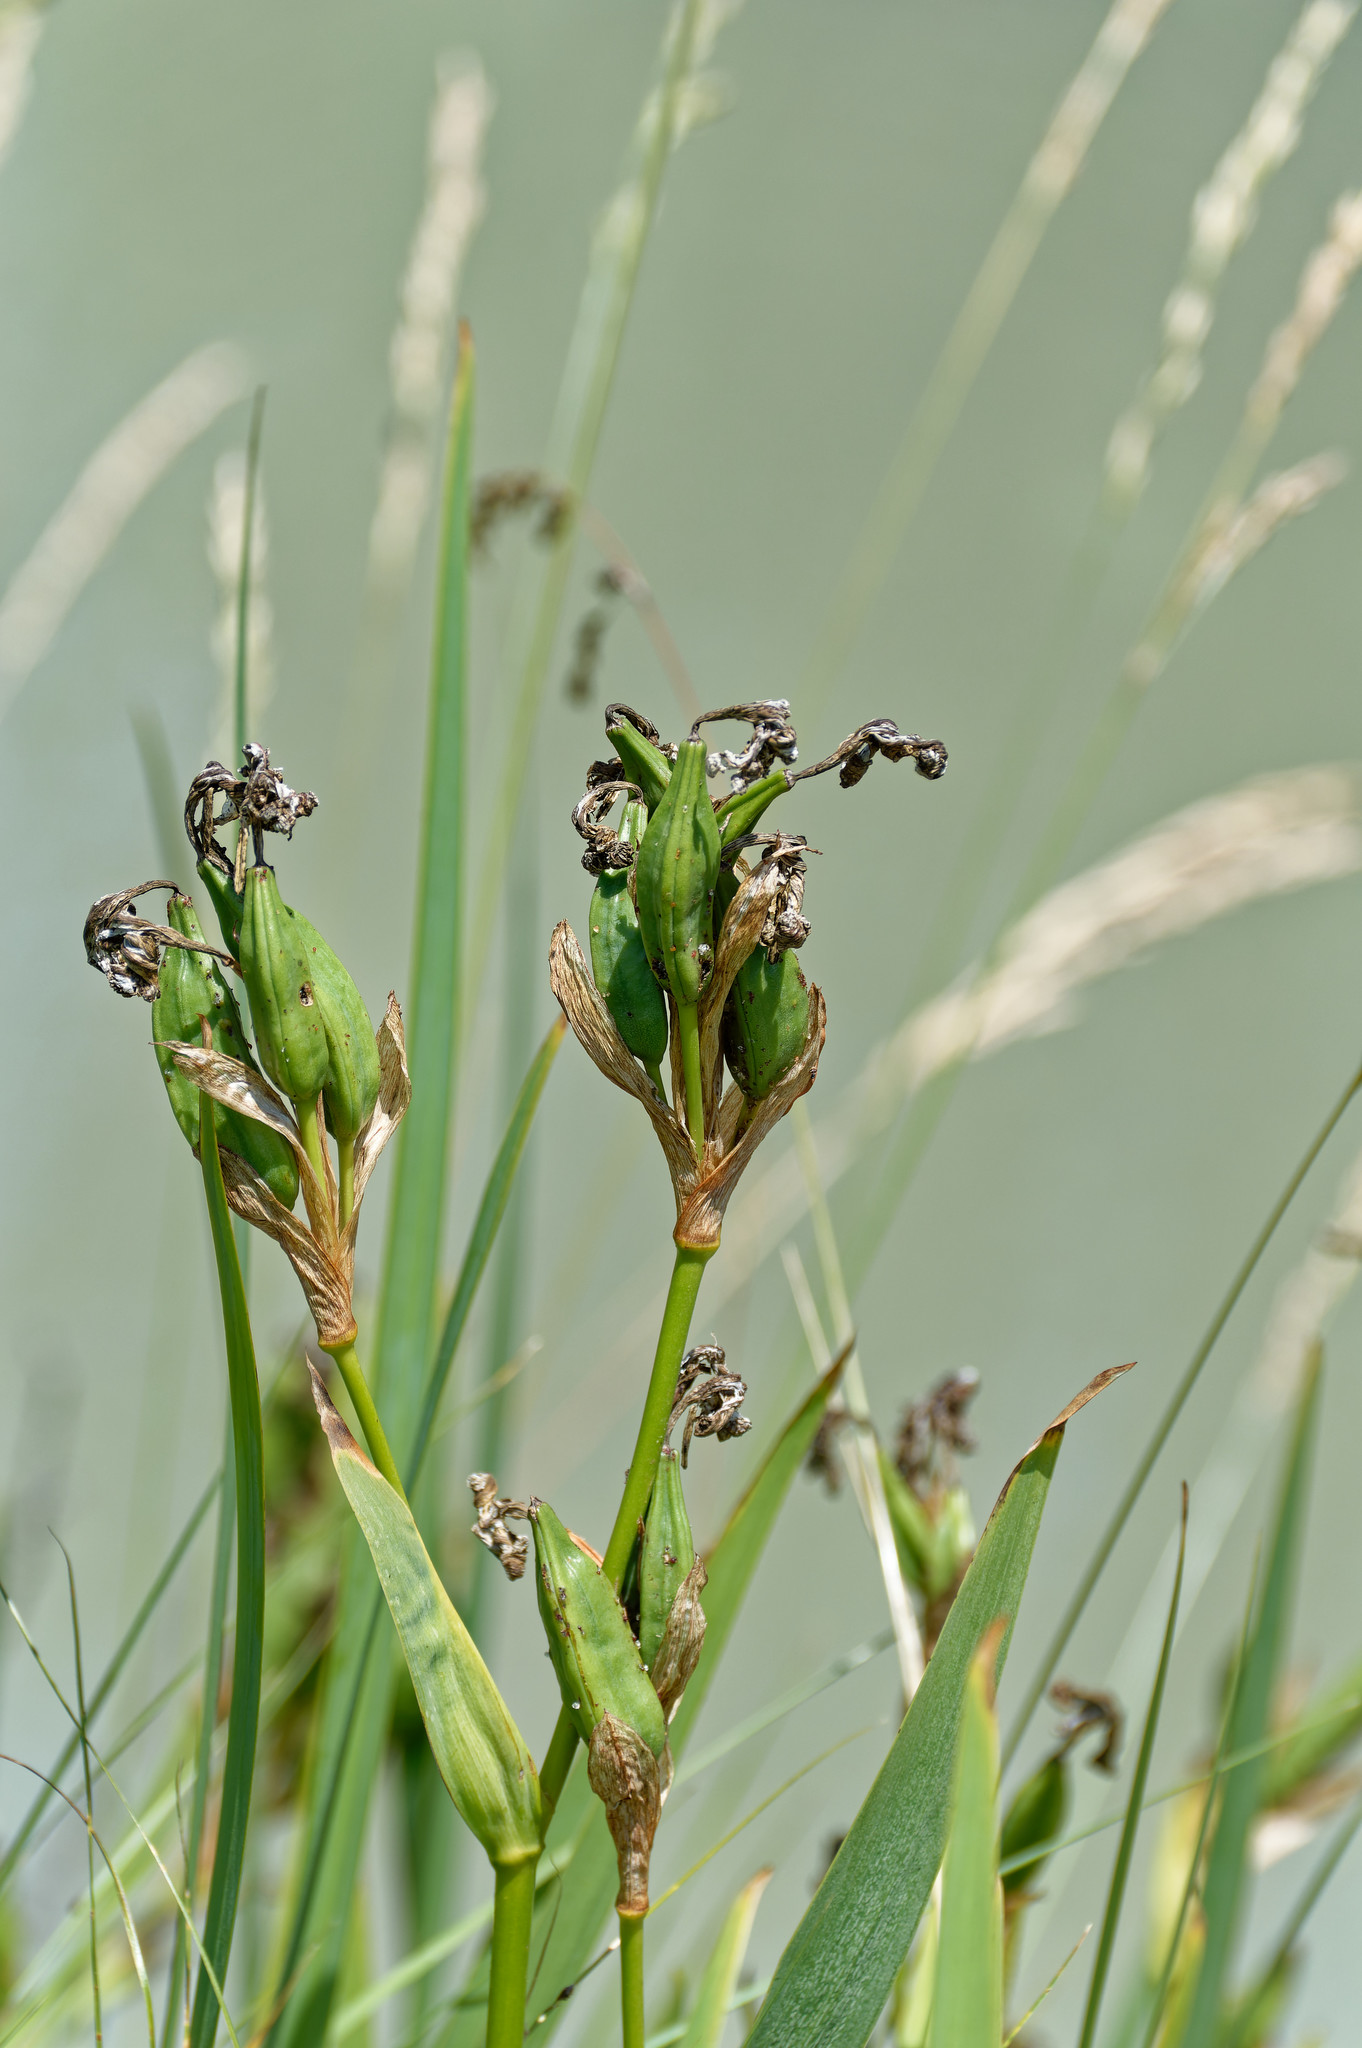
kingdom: Plantae
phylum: Tracheophyta
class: Liliopsida
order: Asparagales
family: Iridaceae
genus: Iris
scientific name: Iris pseudacorus
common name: Yellow flag
